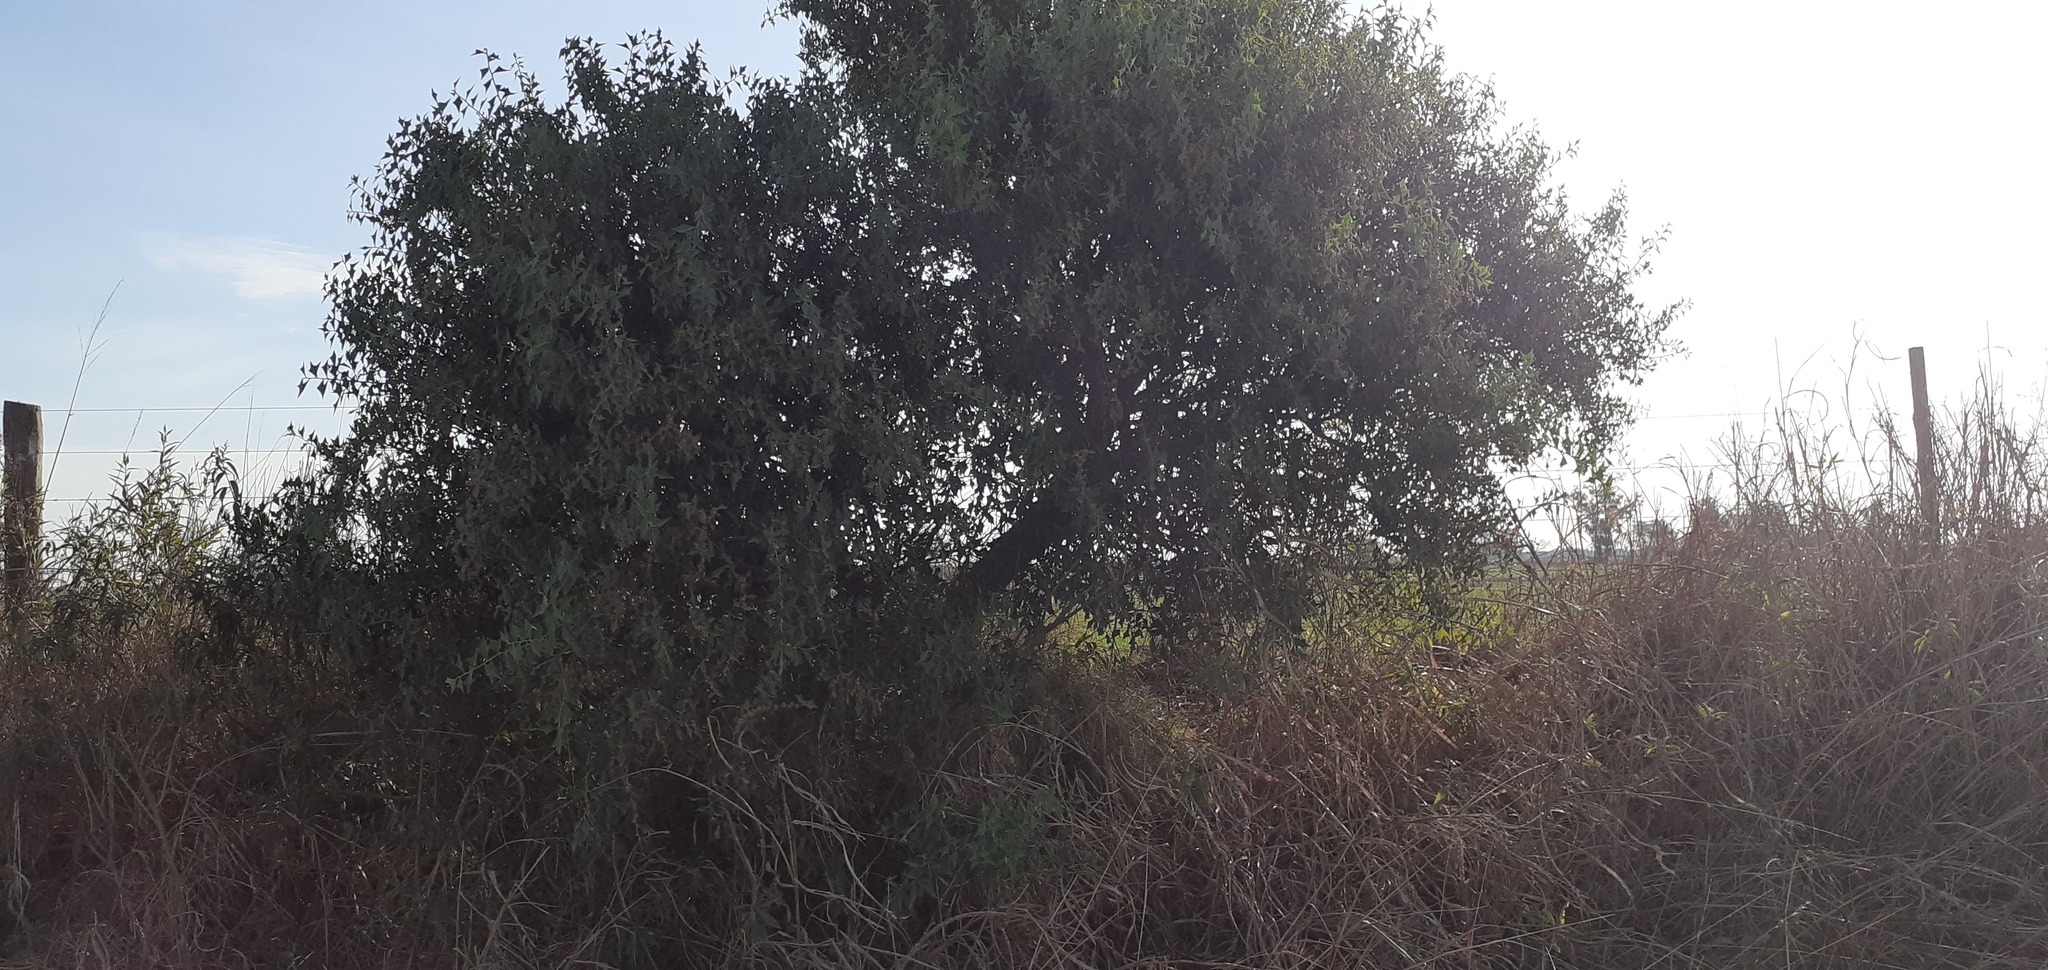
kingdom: Plantae
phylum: Tracheophyta
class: Magnoliopsida
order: Santalales
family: Cervantesiaceae
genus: Jodina
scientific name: Jodina rhombifolia
